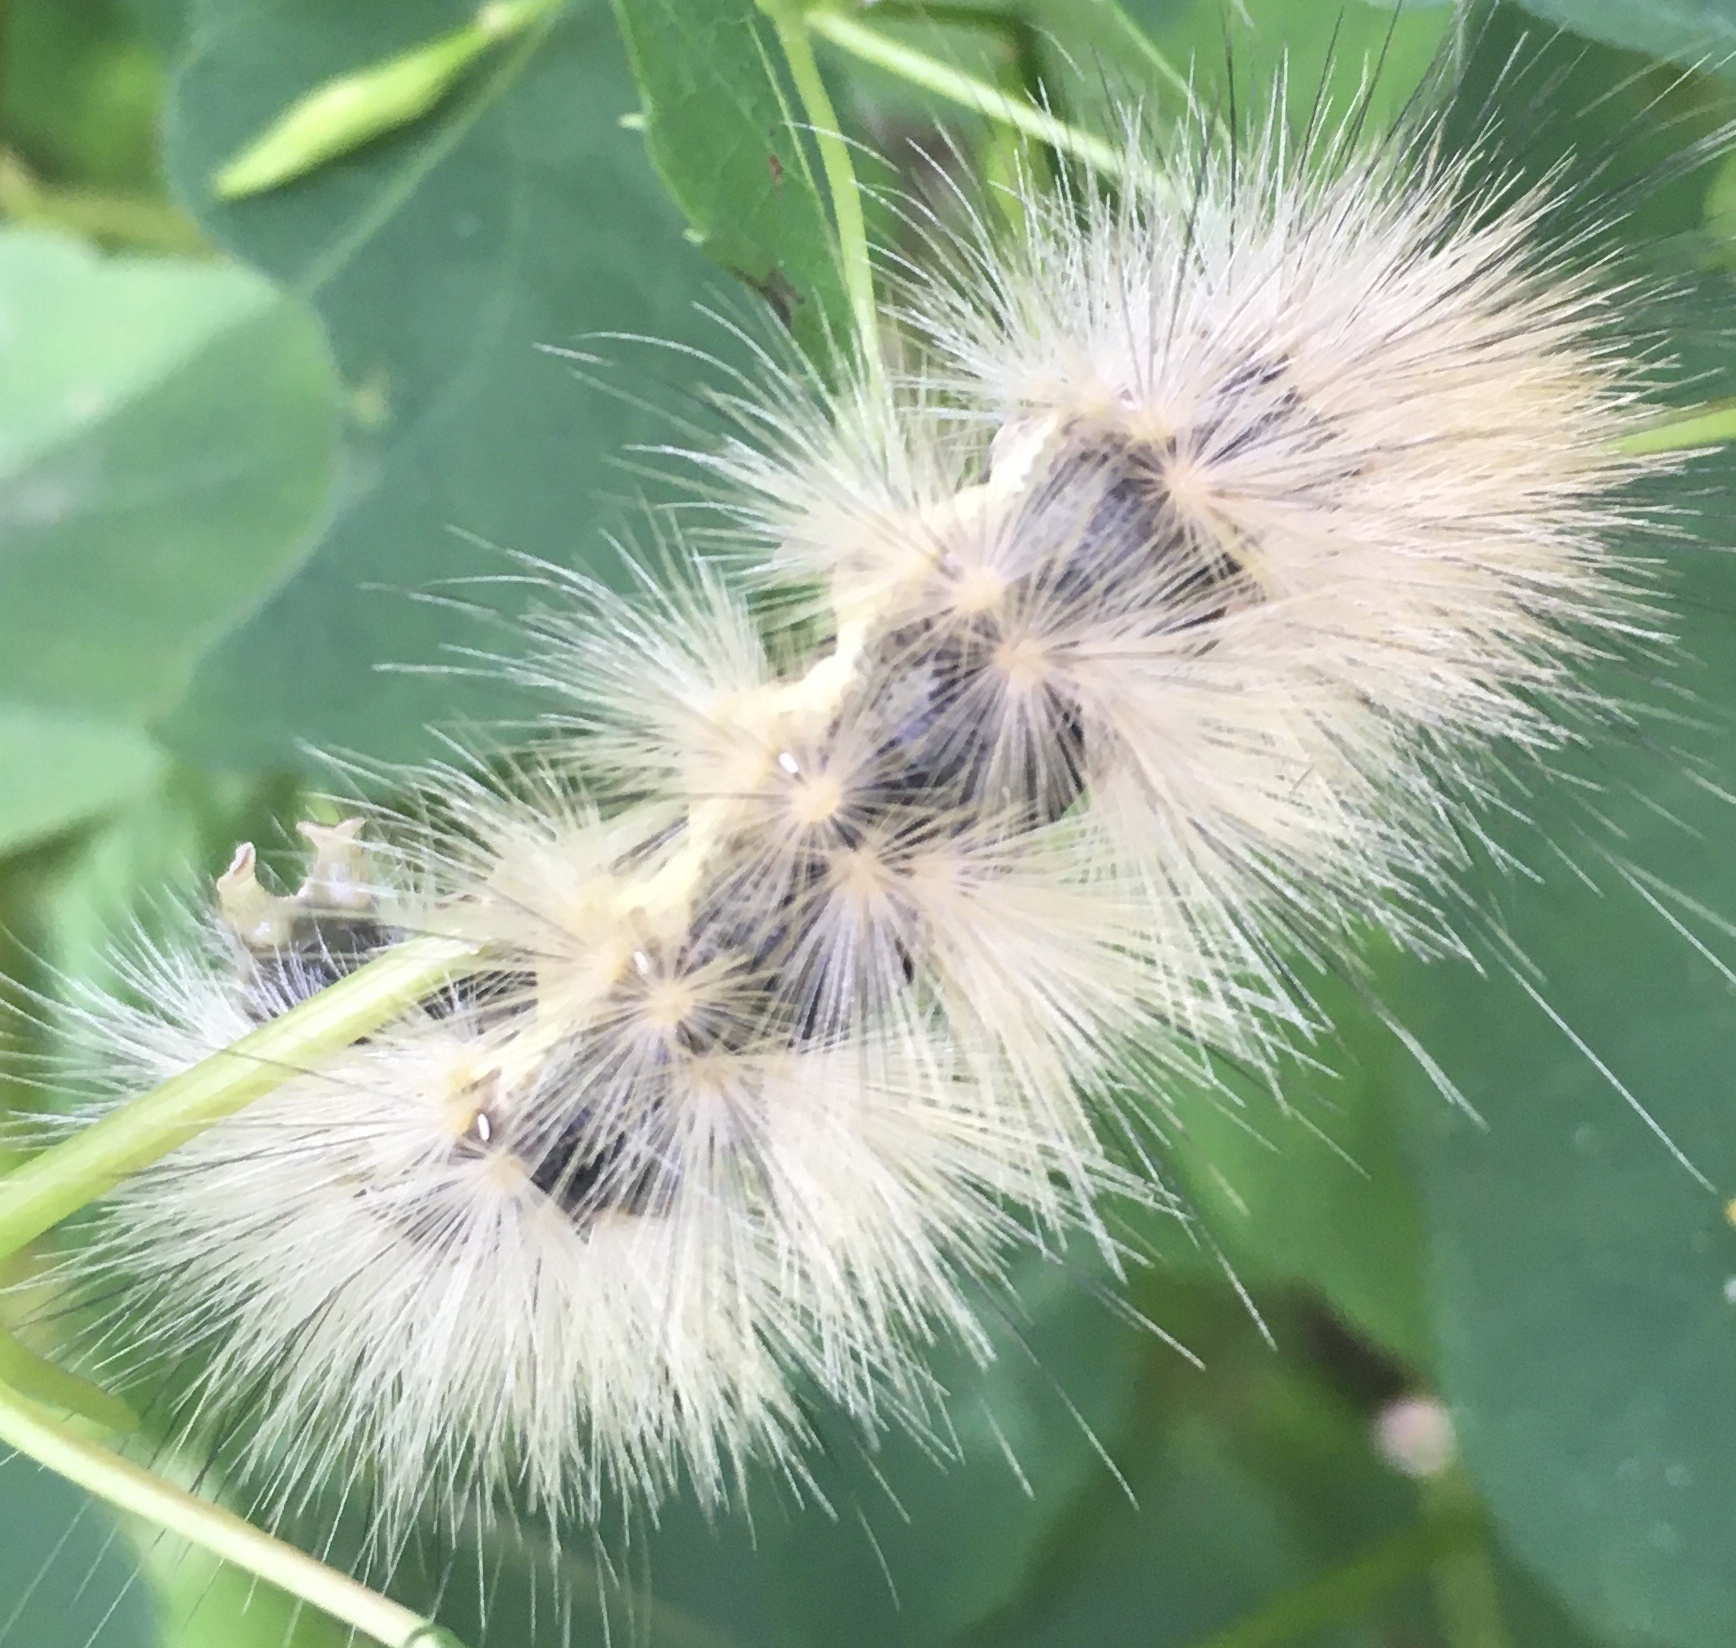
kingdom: Animalia
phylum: Arthropoda
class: Insecta
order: Lepidoptera
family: Erebidae
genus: Spilosoma
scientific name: Spilosoma virginica
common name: Virginia tiger moth
